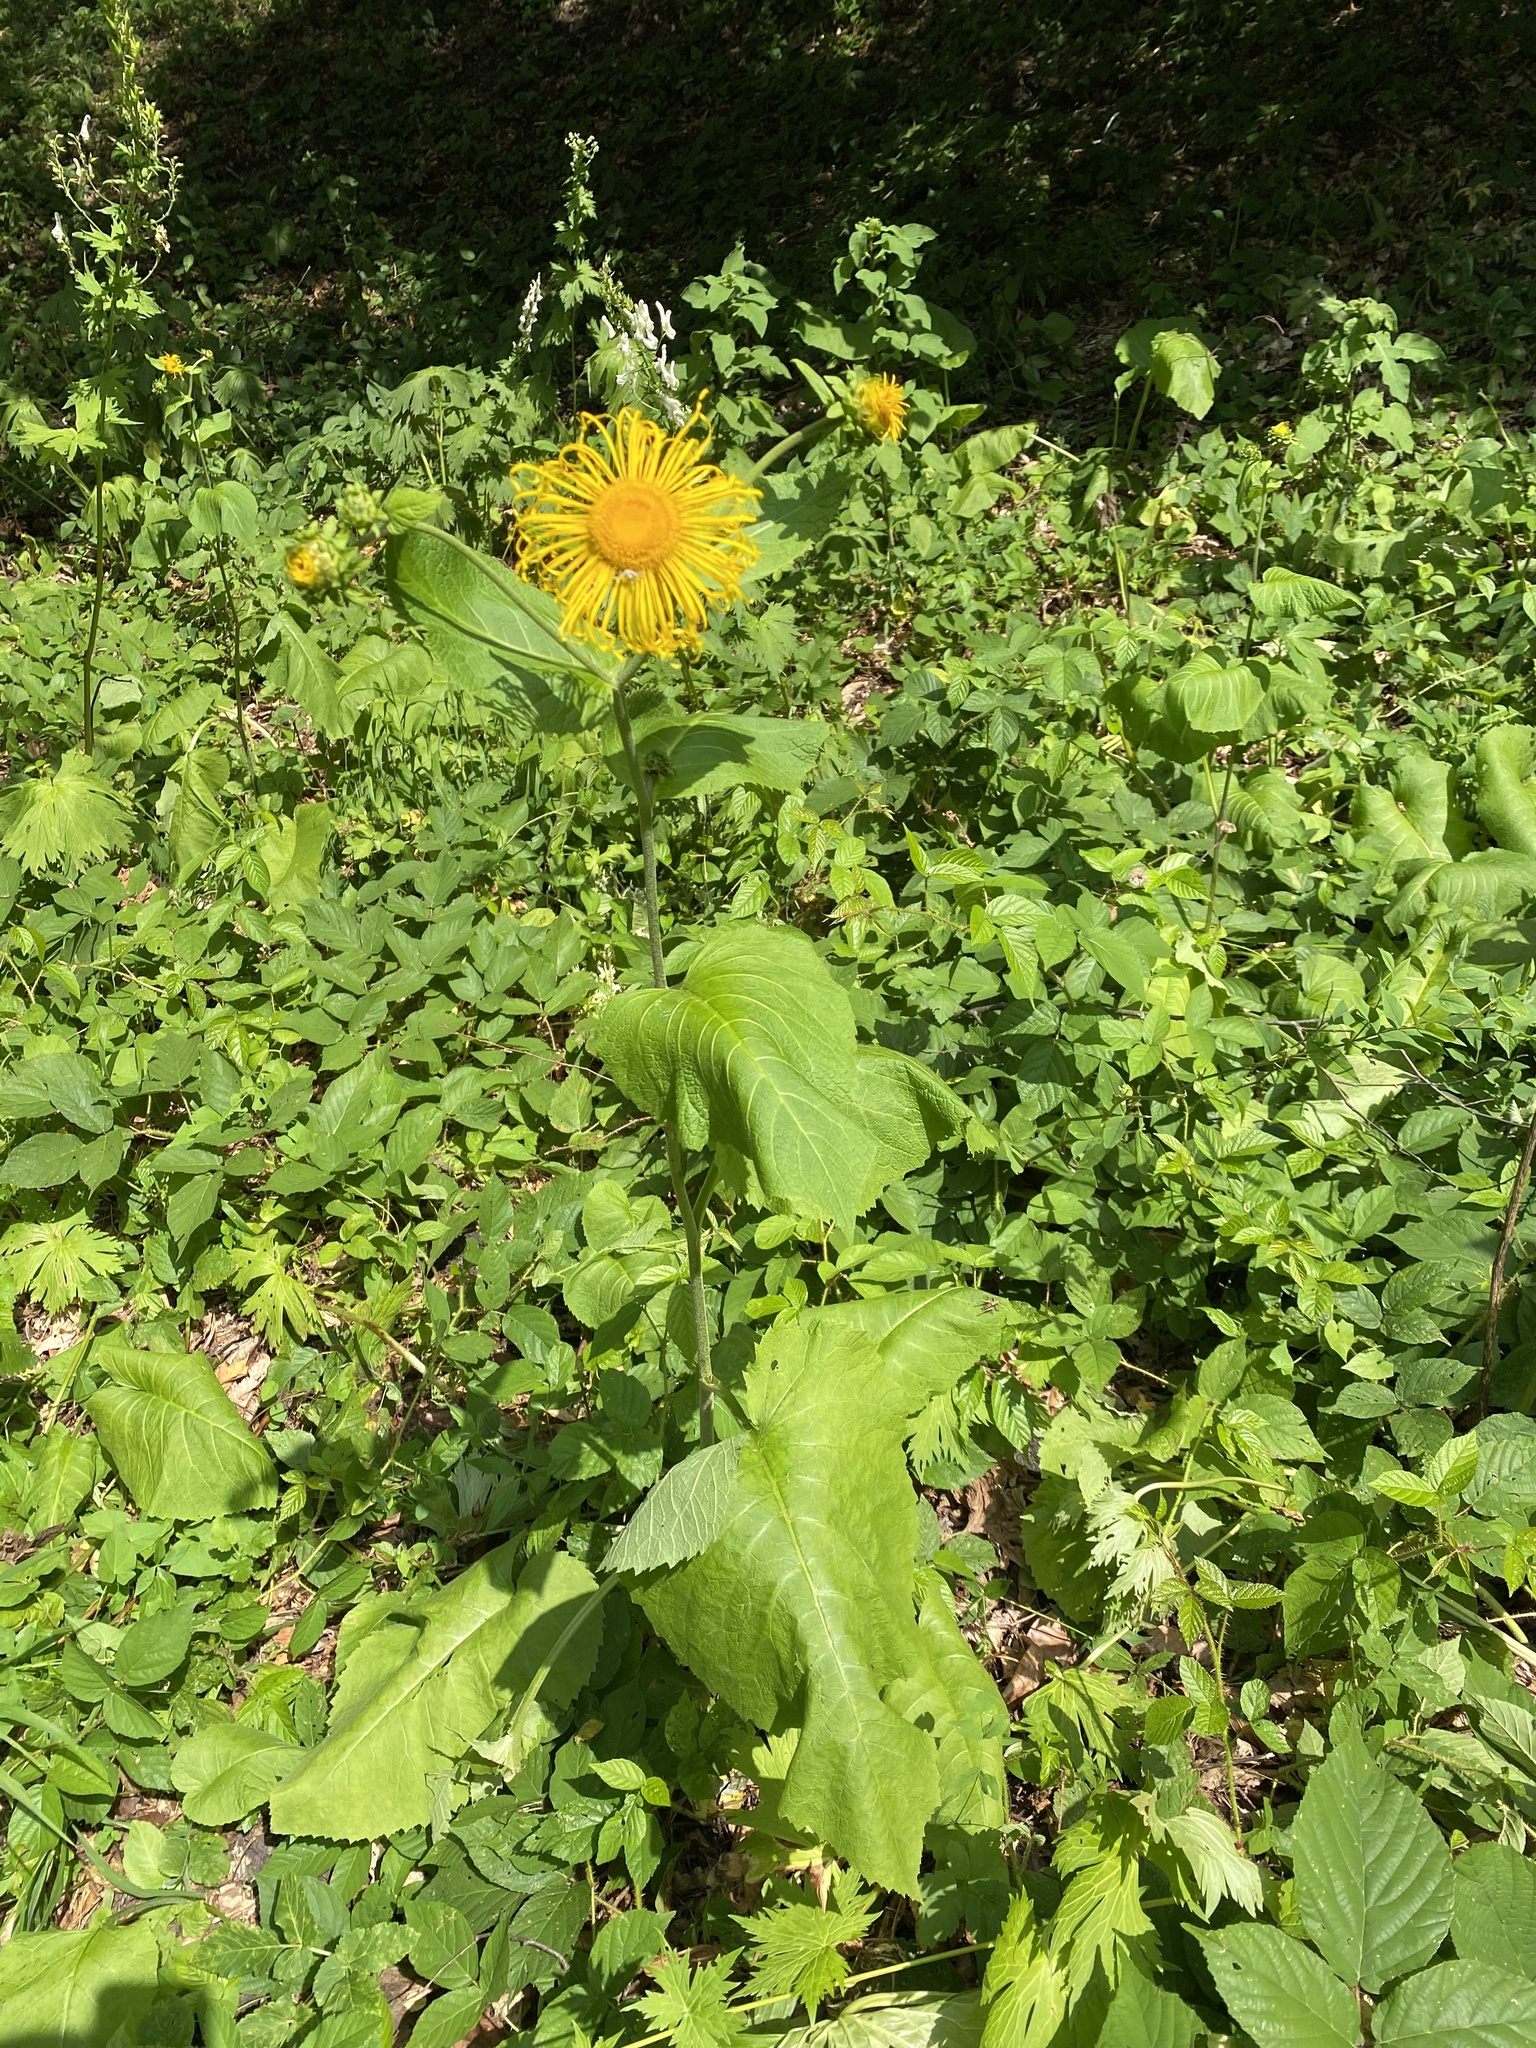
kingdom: Plantae
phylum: Tracheophyta
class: Magnoliopsida
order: Asterales
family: Asteraceae
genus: Telekia
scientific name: Telekia speciosa
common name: Yellow oxeye
